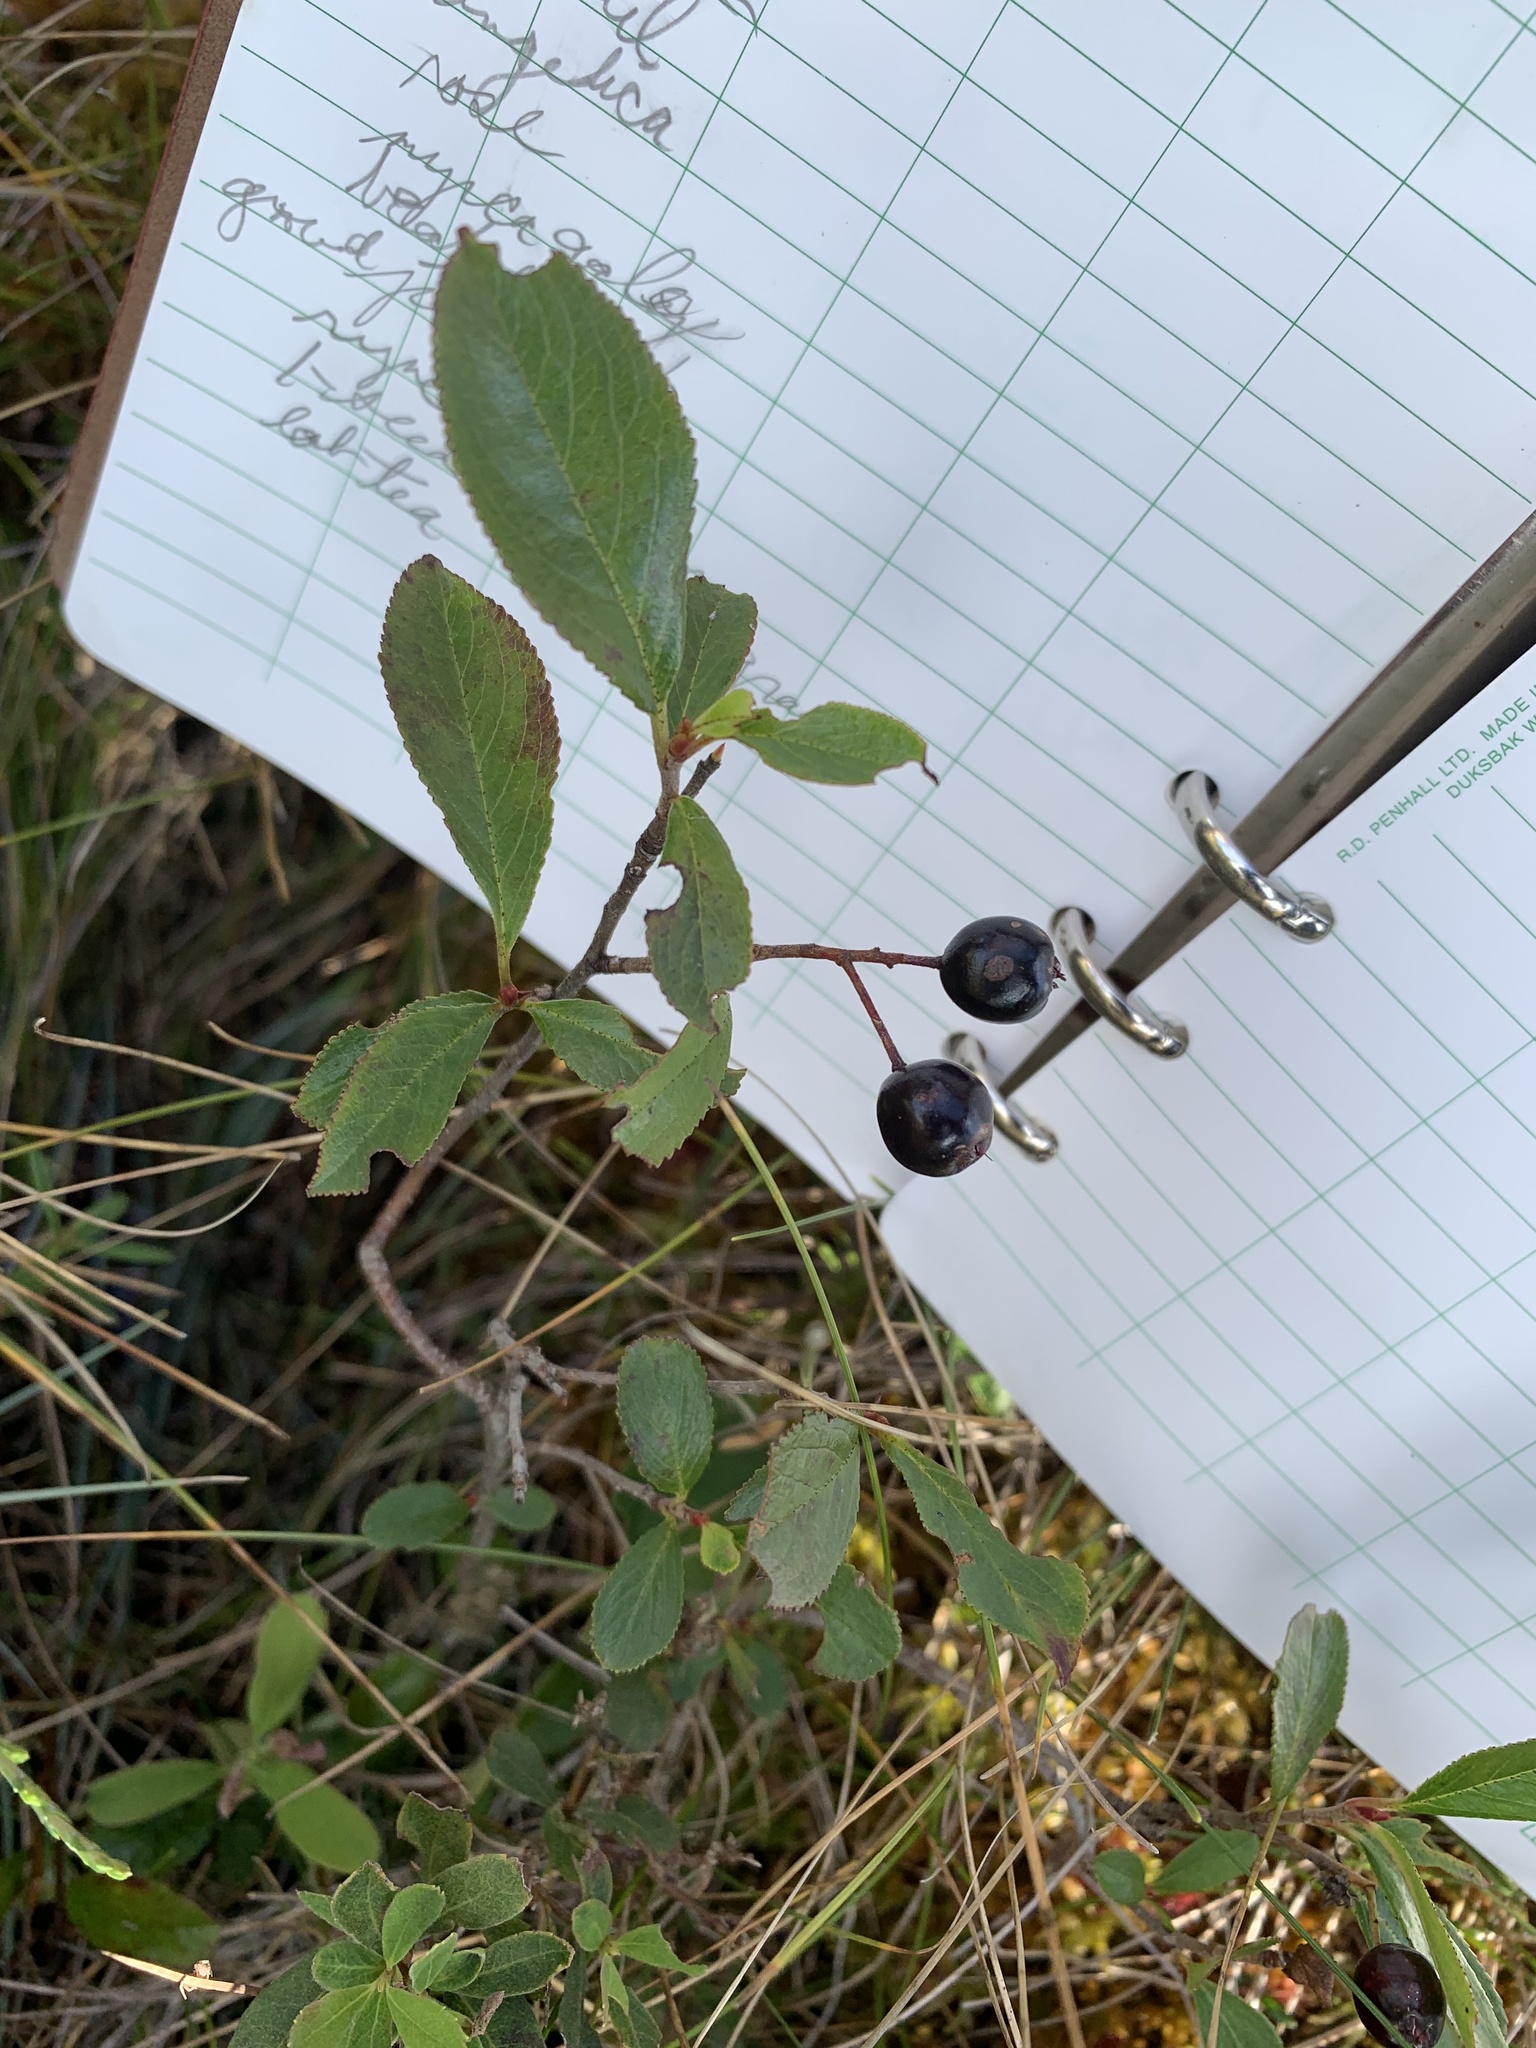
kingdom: Plantae
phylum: Tracheophyta
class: Magnoliopsida
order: Rosales
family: Rosaceae
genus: Aronia
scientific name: Aronia melanocarpa
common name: Black chokeberry
